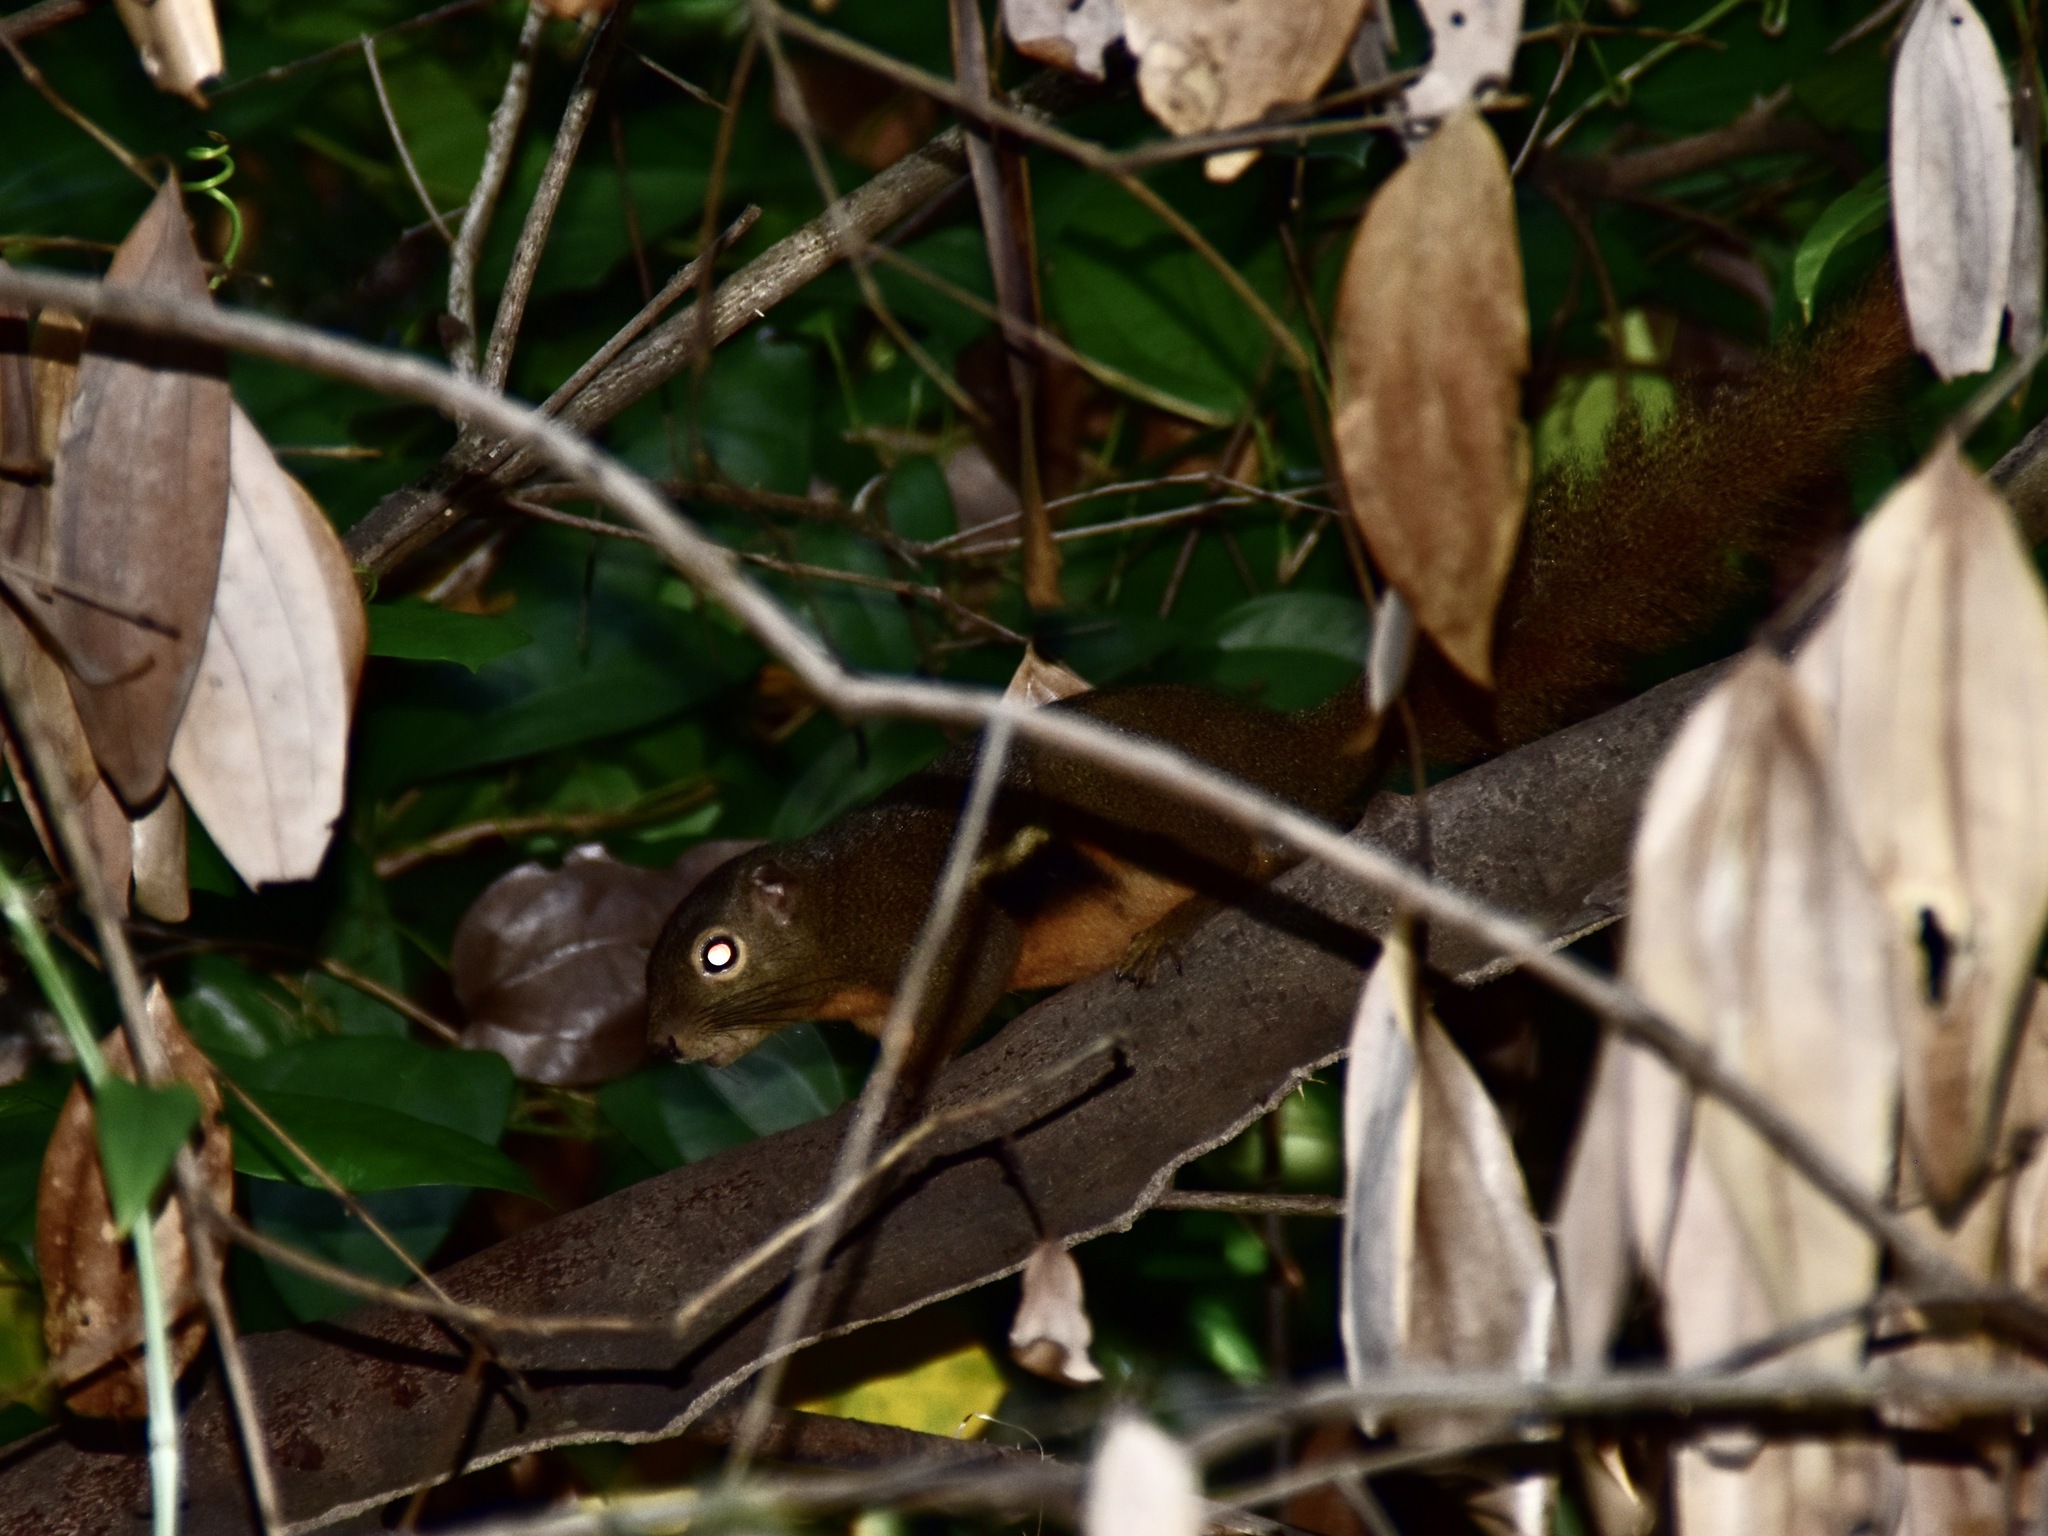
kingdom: Animalia
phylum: Chordata
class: Mammalia
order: Rodentia
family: Sciuridae
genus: Callosciurus
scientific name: Callosciurus notatus
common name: Plantain squirrel
